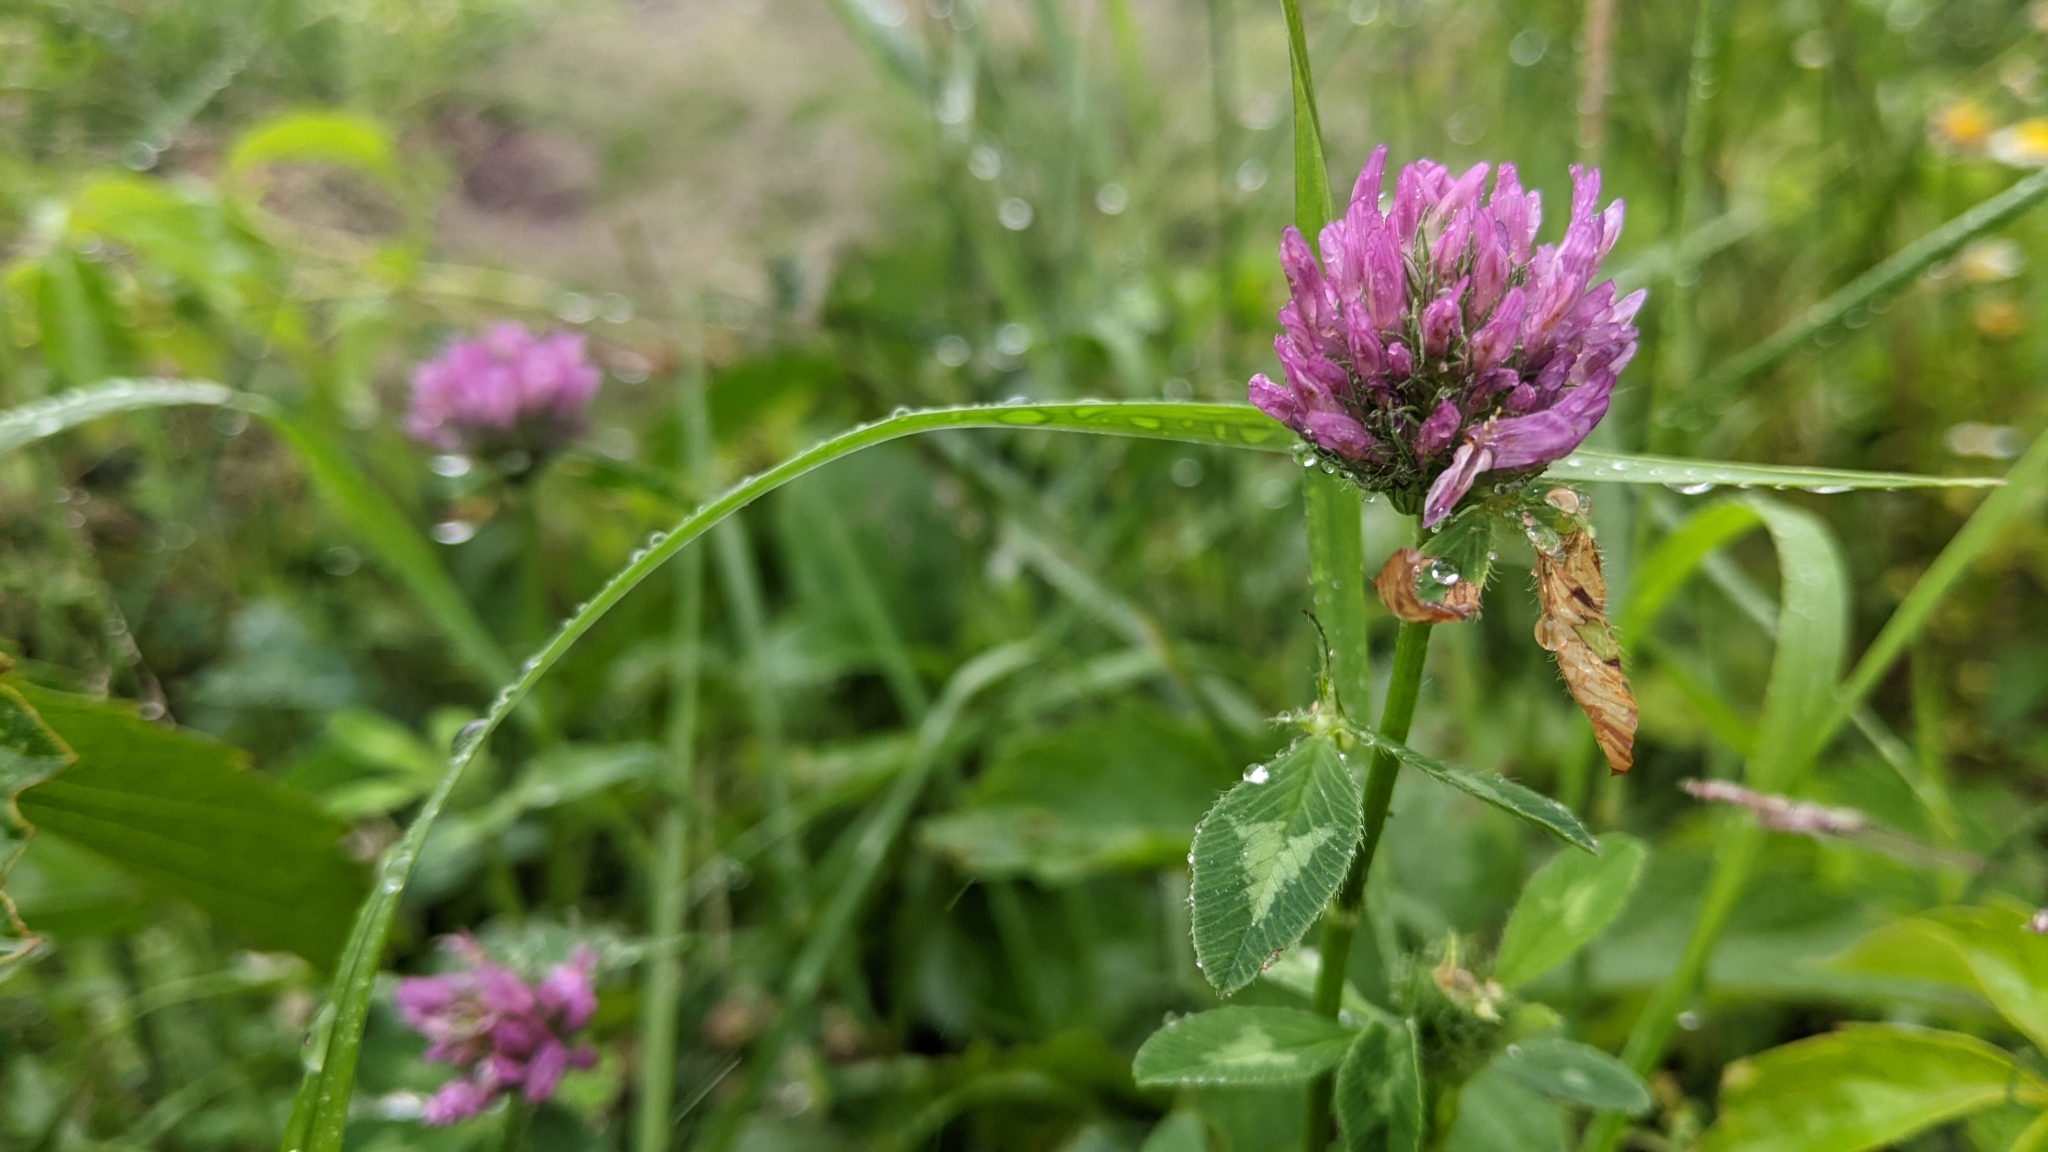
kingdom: Plantae
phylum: Tracheophyta
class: Magnoliopsida
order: Fabales
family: Fabaceae
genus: Trifolium
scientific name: Trifolium pratense
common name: Red clover
